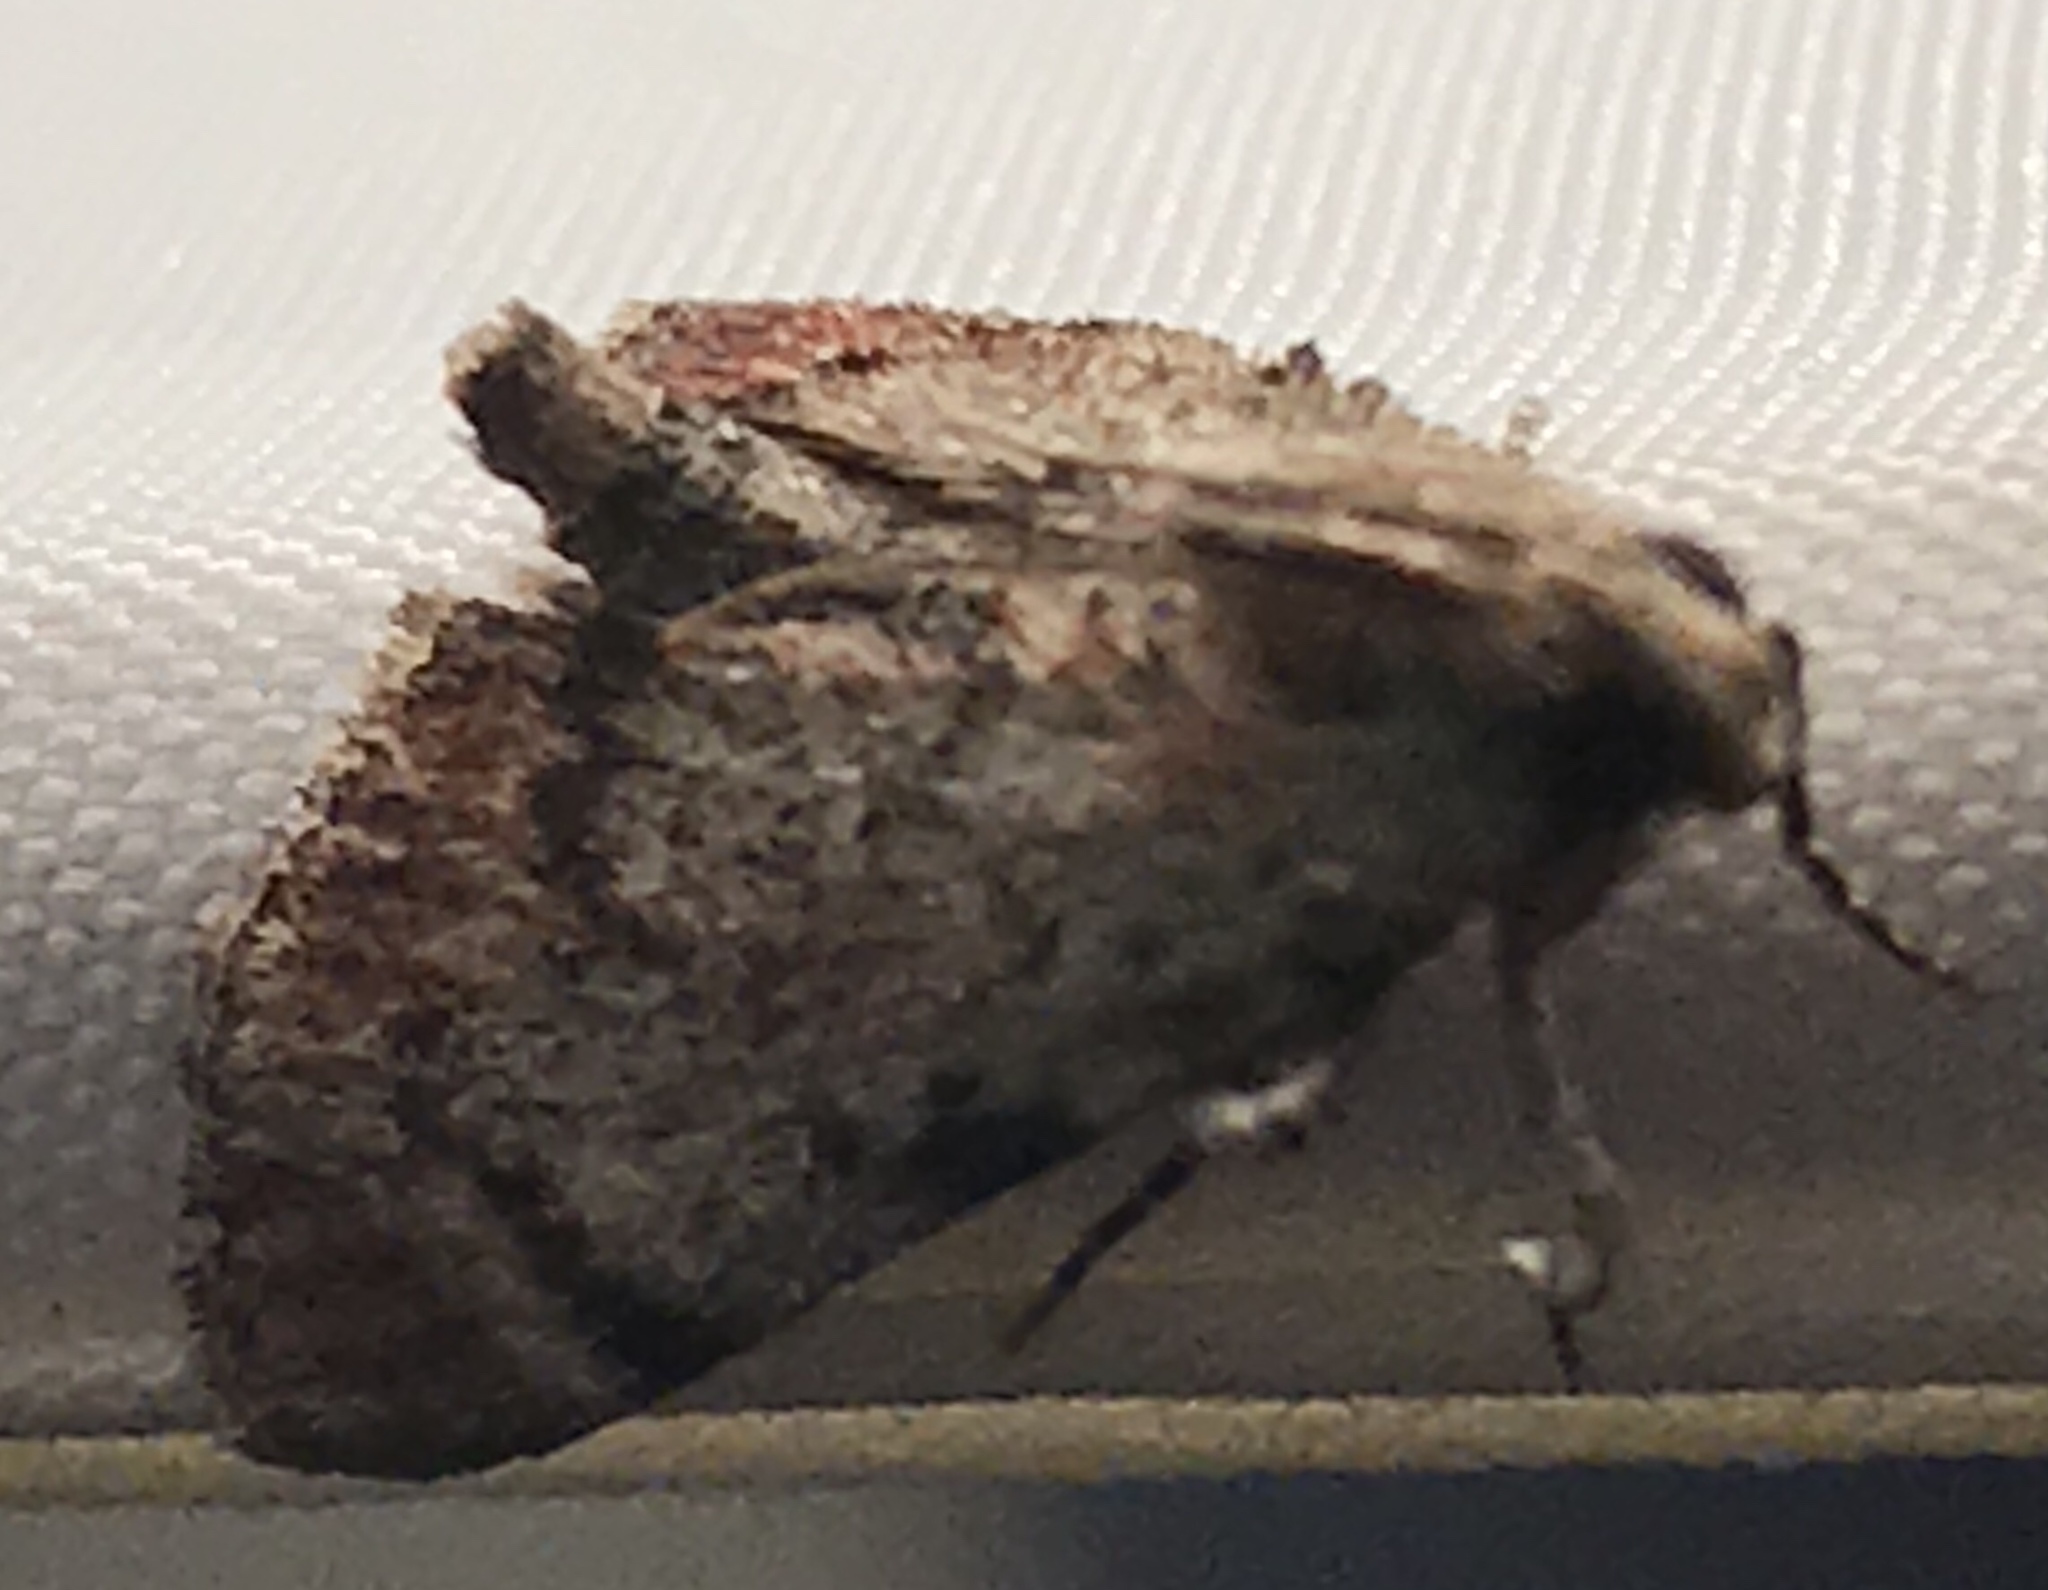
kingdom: Animalia
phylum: Arthropoda
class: Insecta
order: Lepidoptera
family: Pyralidae
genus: Epipaschia
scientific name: Epipaschia superatalis
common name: Dimorphic macalla moth
